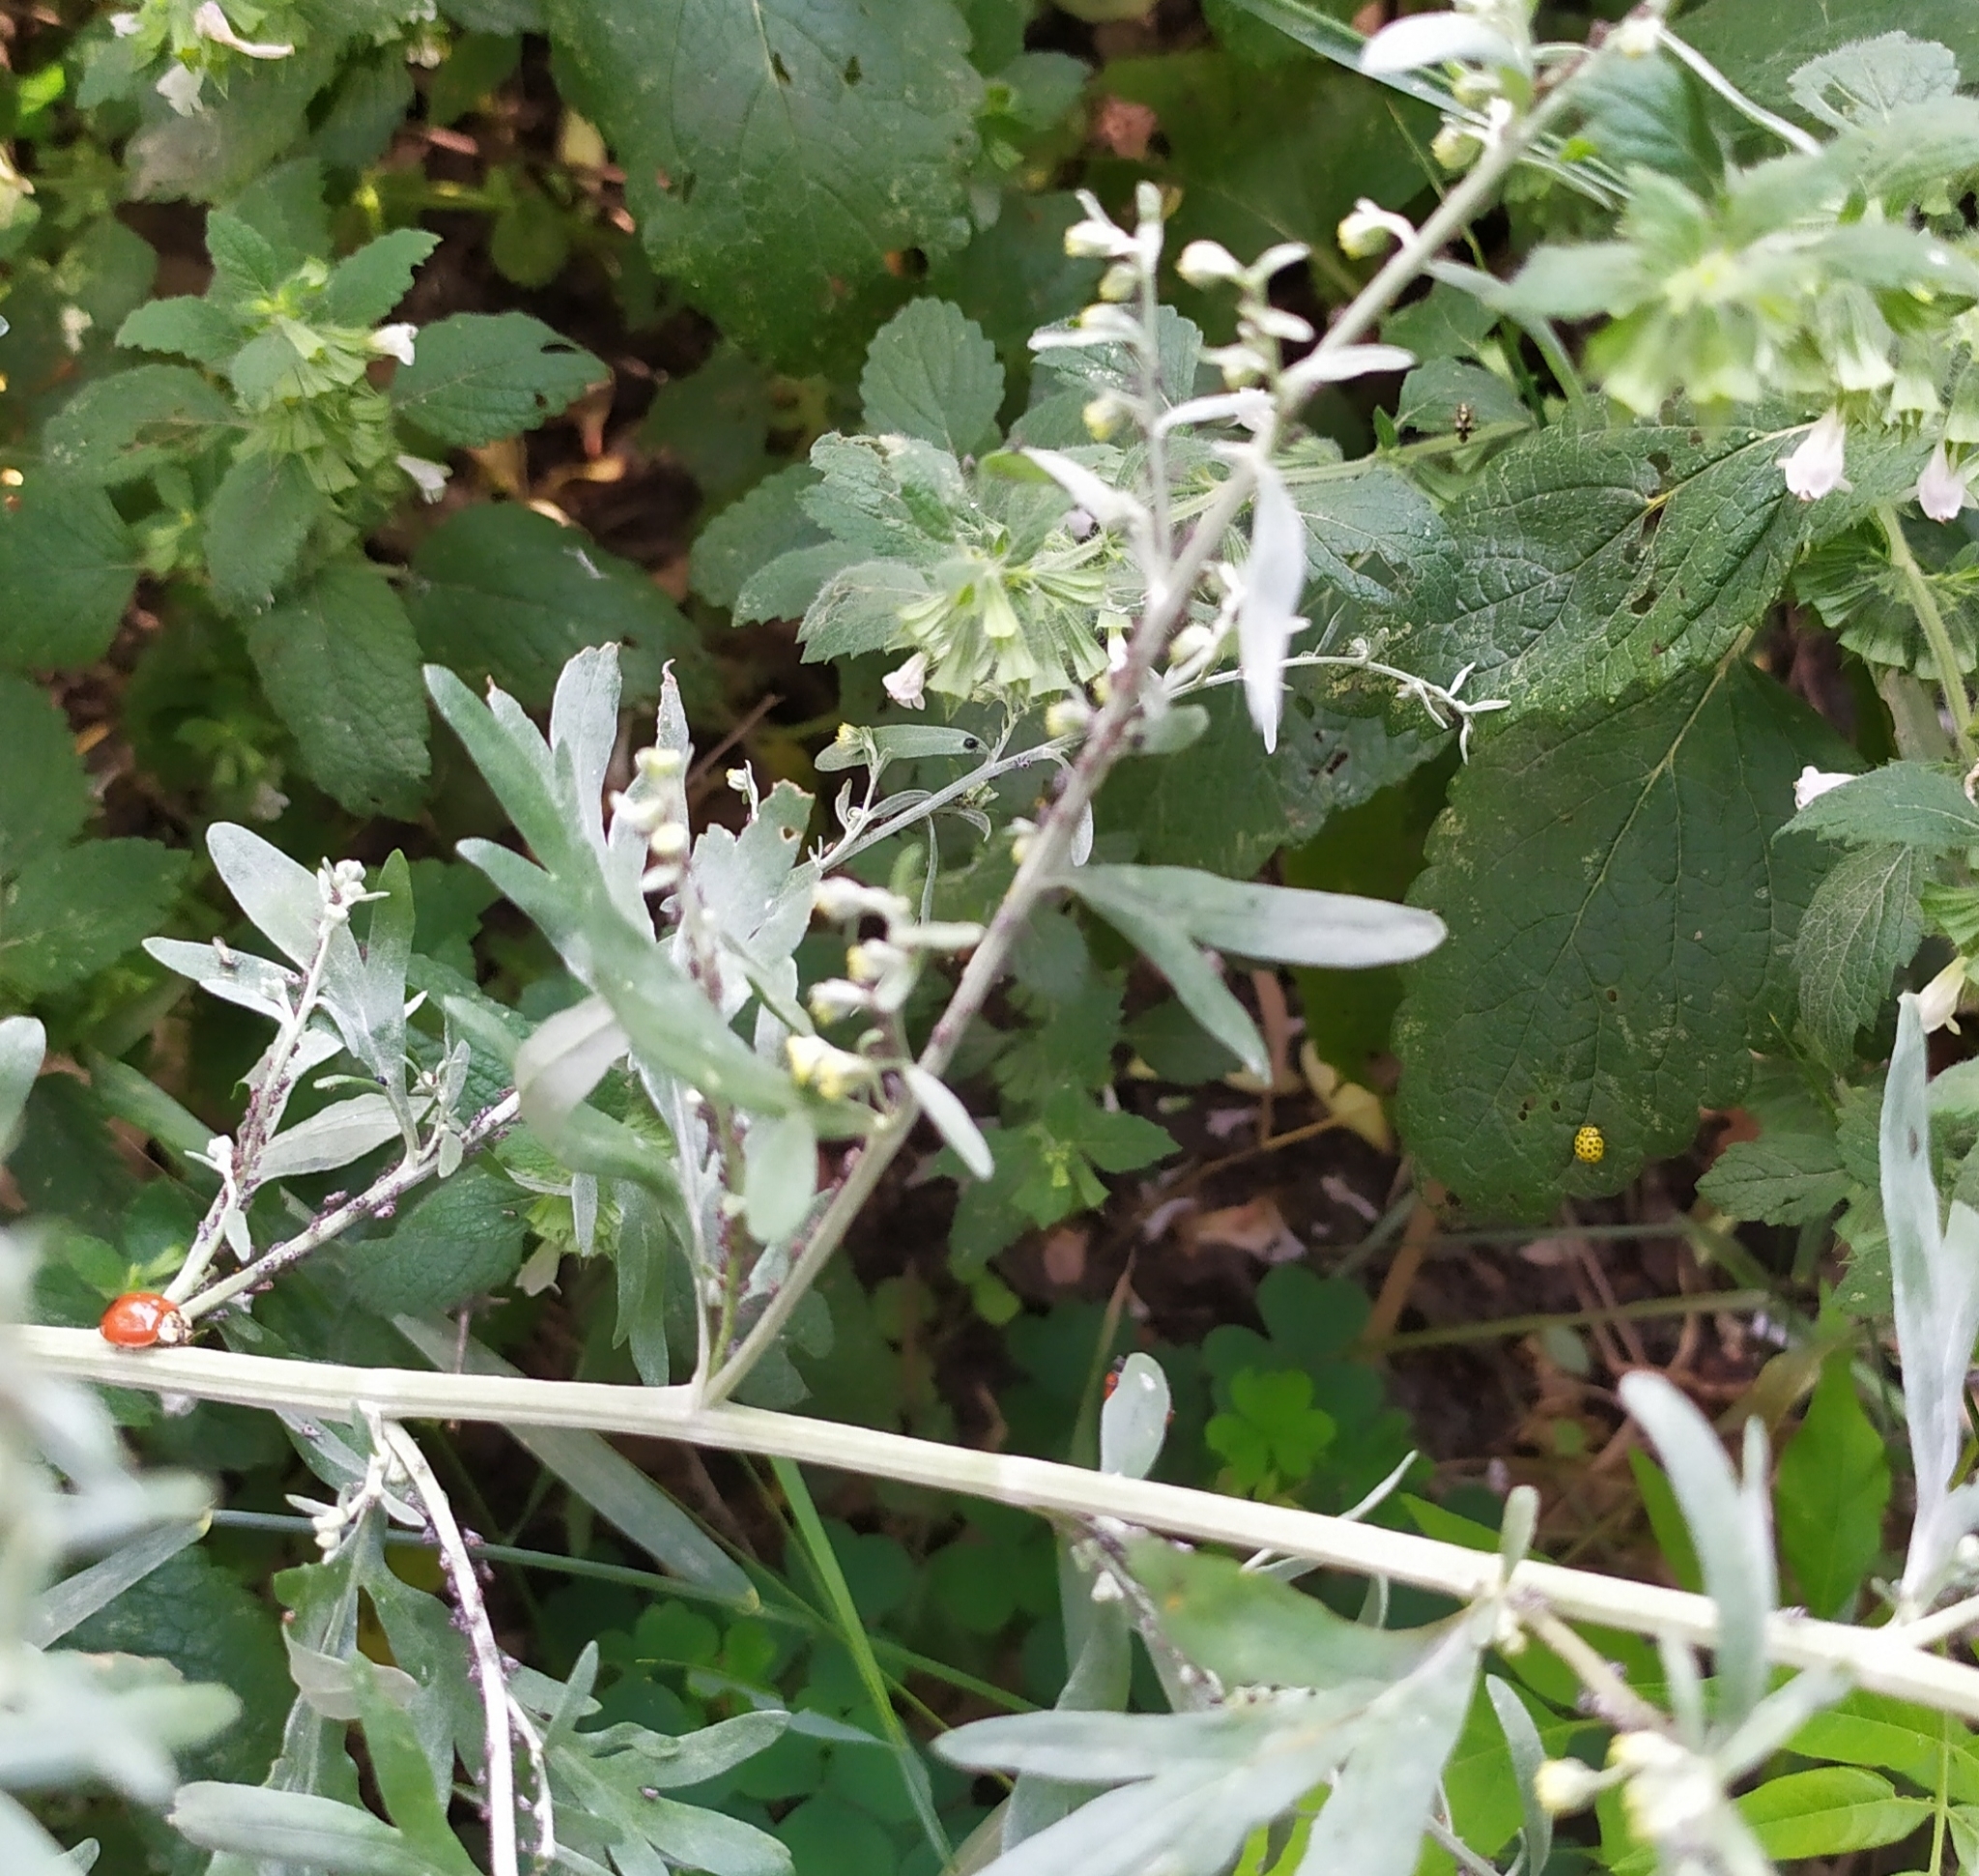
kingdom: Animalia
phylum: Arthropoda
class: Insecta
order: Coleoptera
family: Coccinellidae
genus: Psyllobora
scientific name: Psyllobora vigintiduopunctata
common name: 22-spot ladybird
